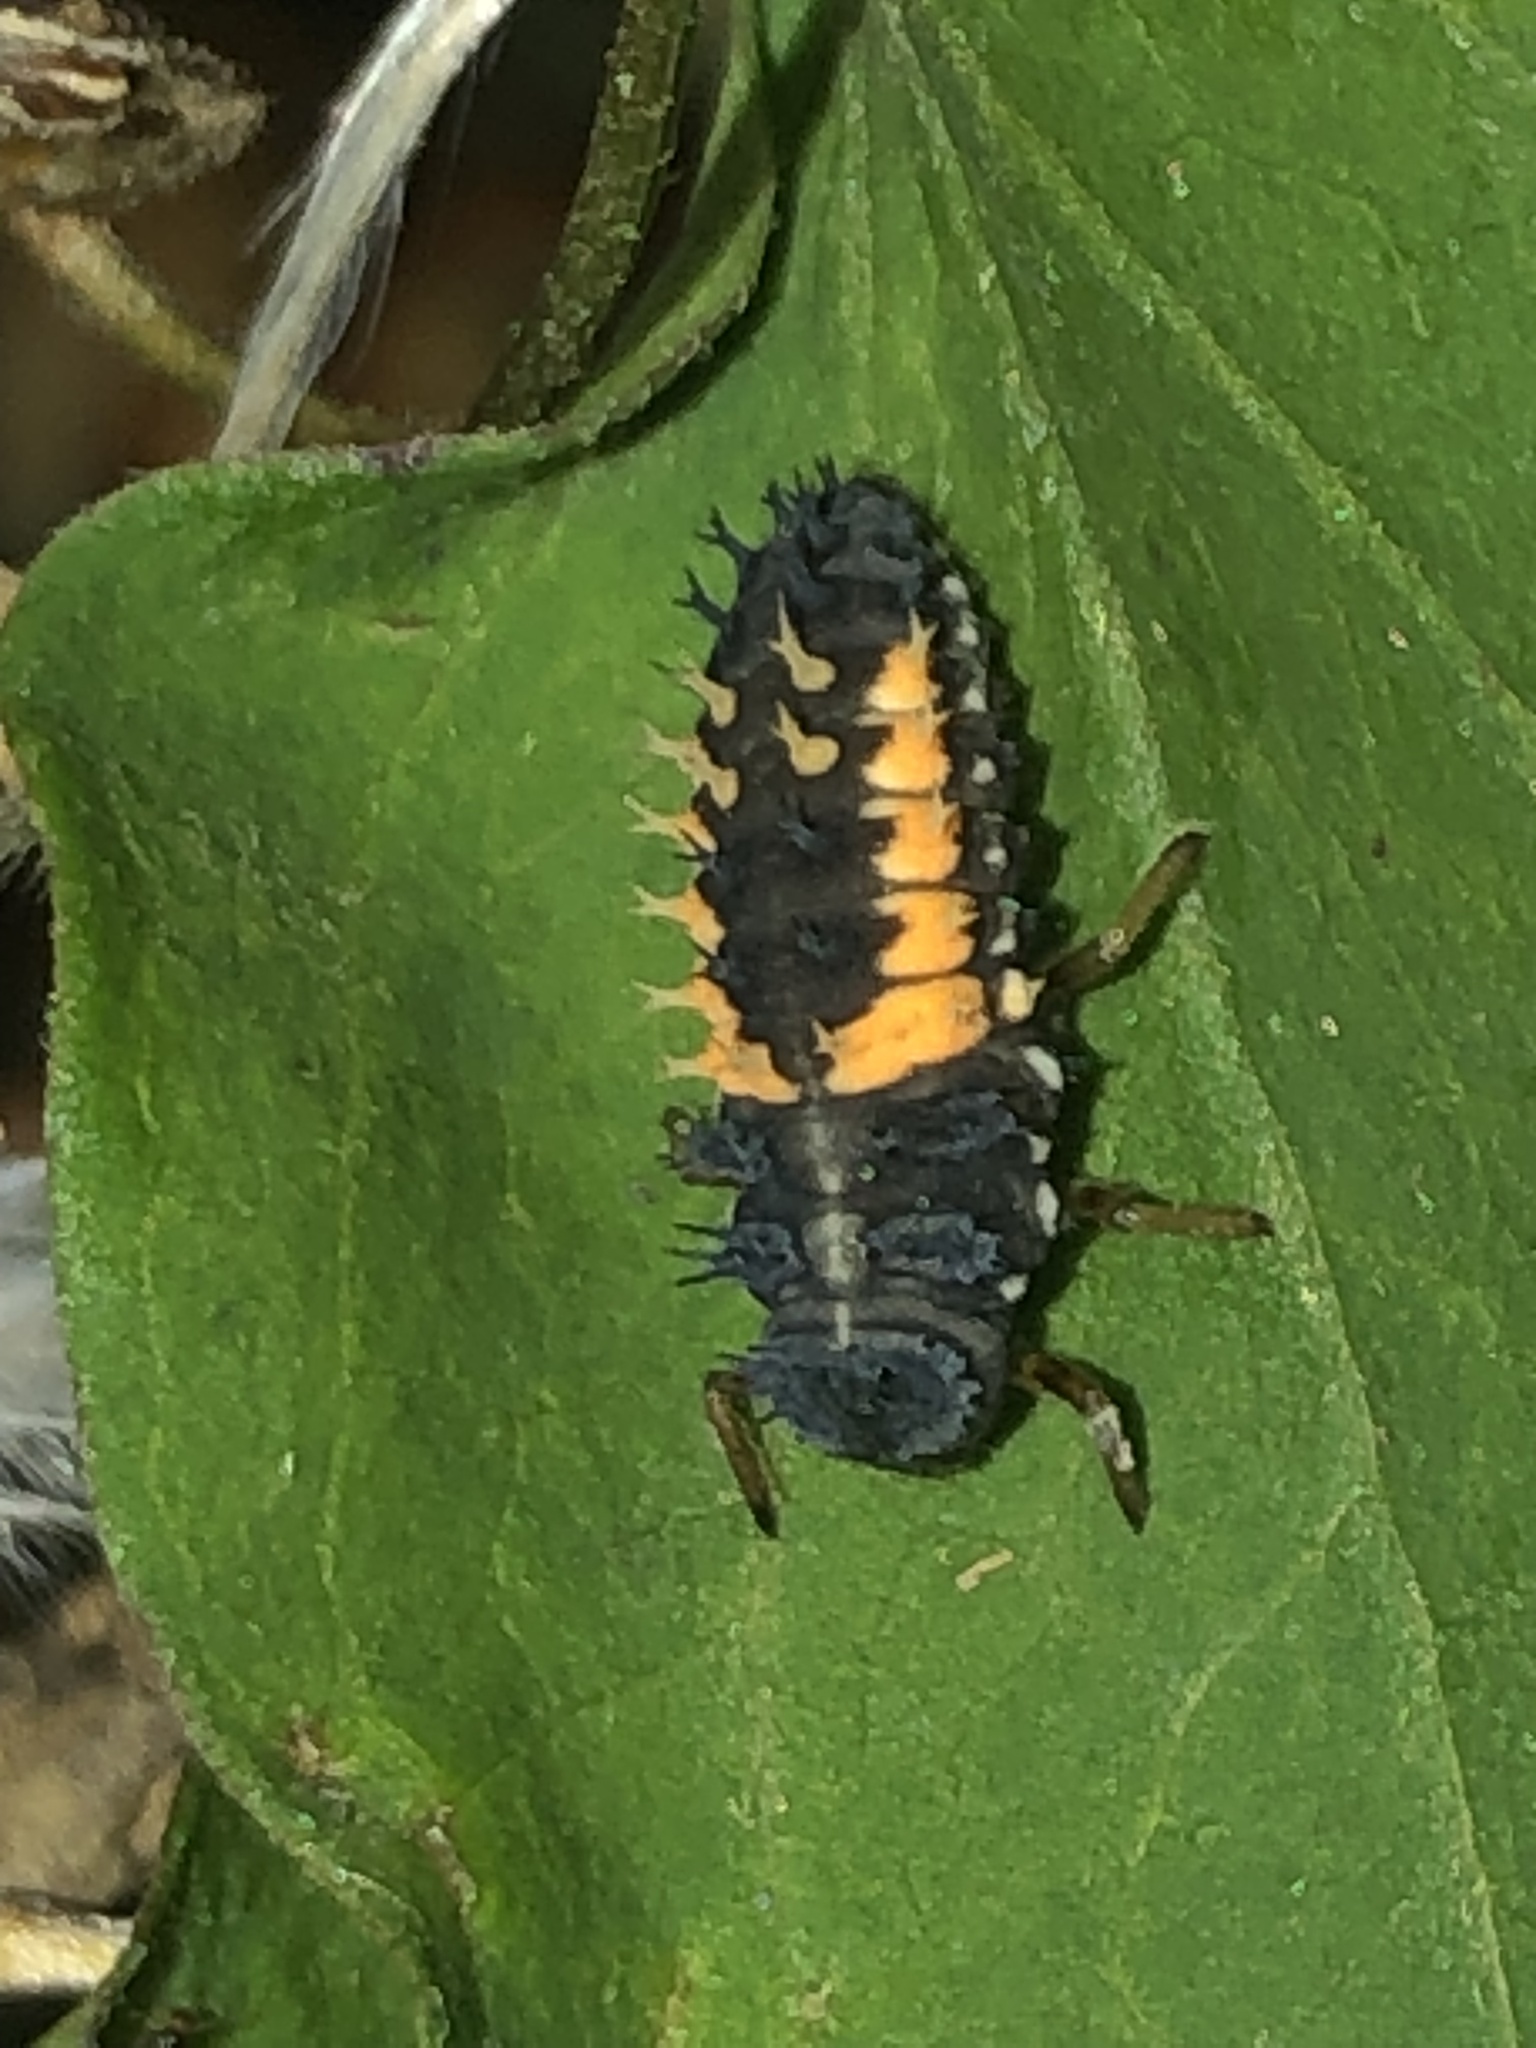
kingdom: Animalia
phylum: Arthropoda
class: Insecta
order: Coleoptera
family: Coccinellidae
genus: Harmonia
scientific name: Harmonia axyridis
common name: Harlequin ladybird
